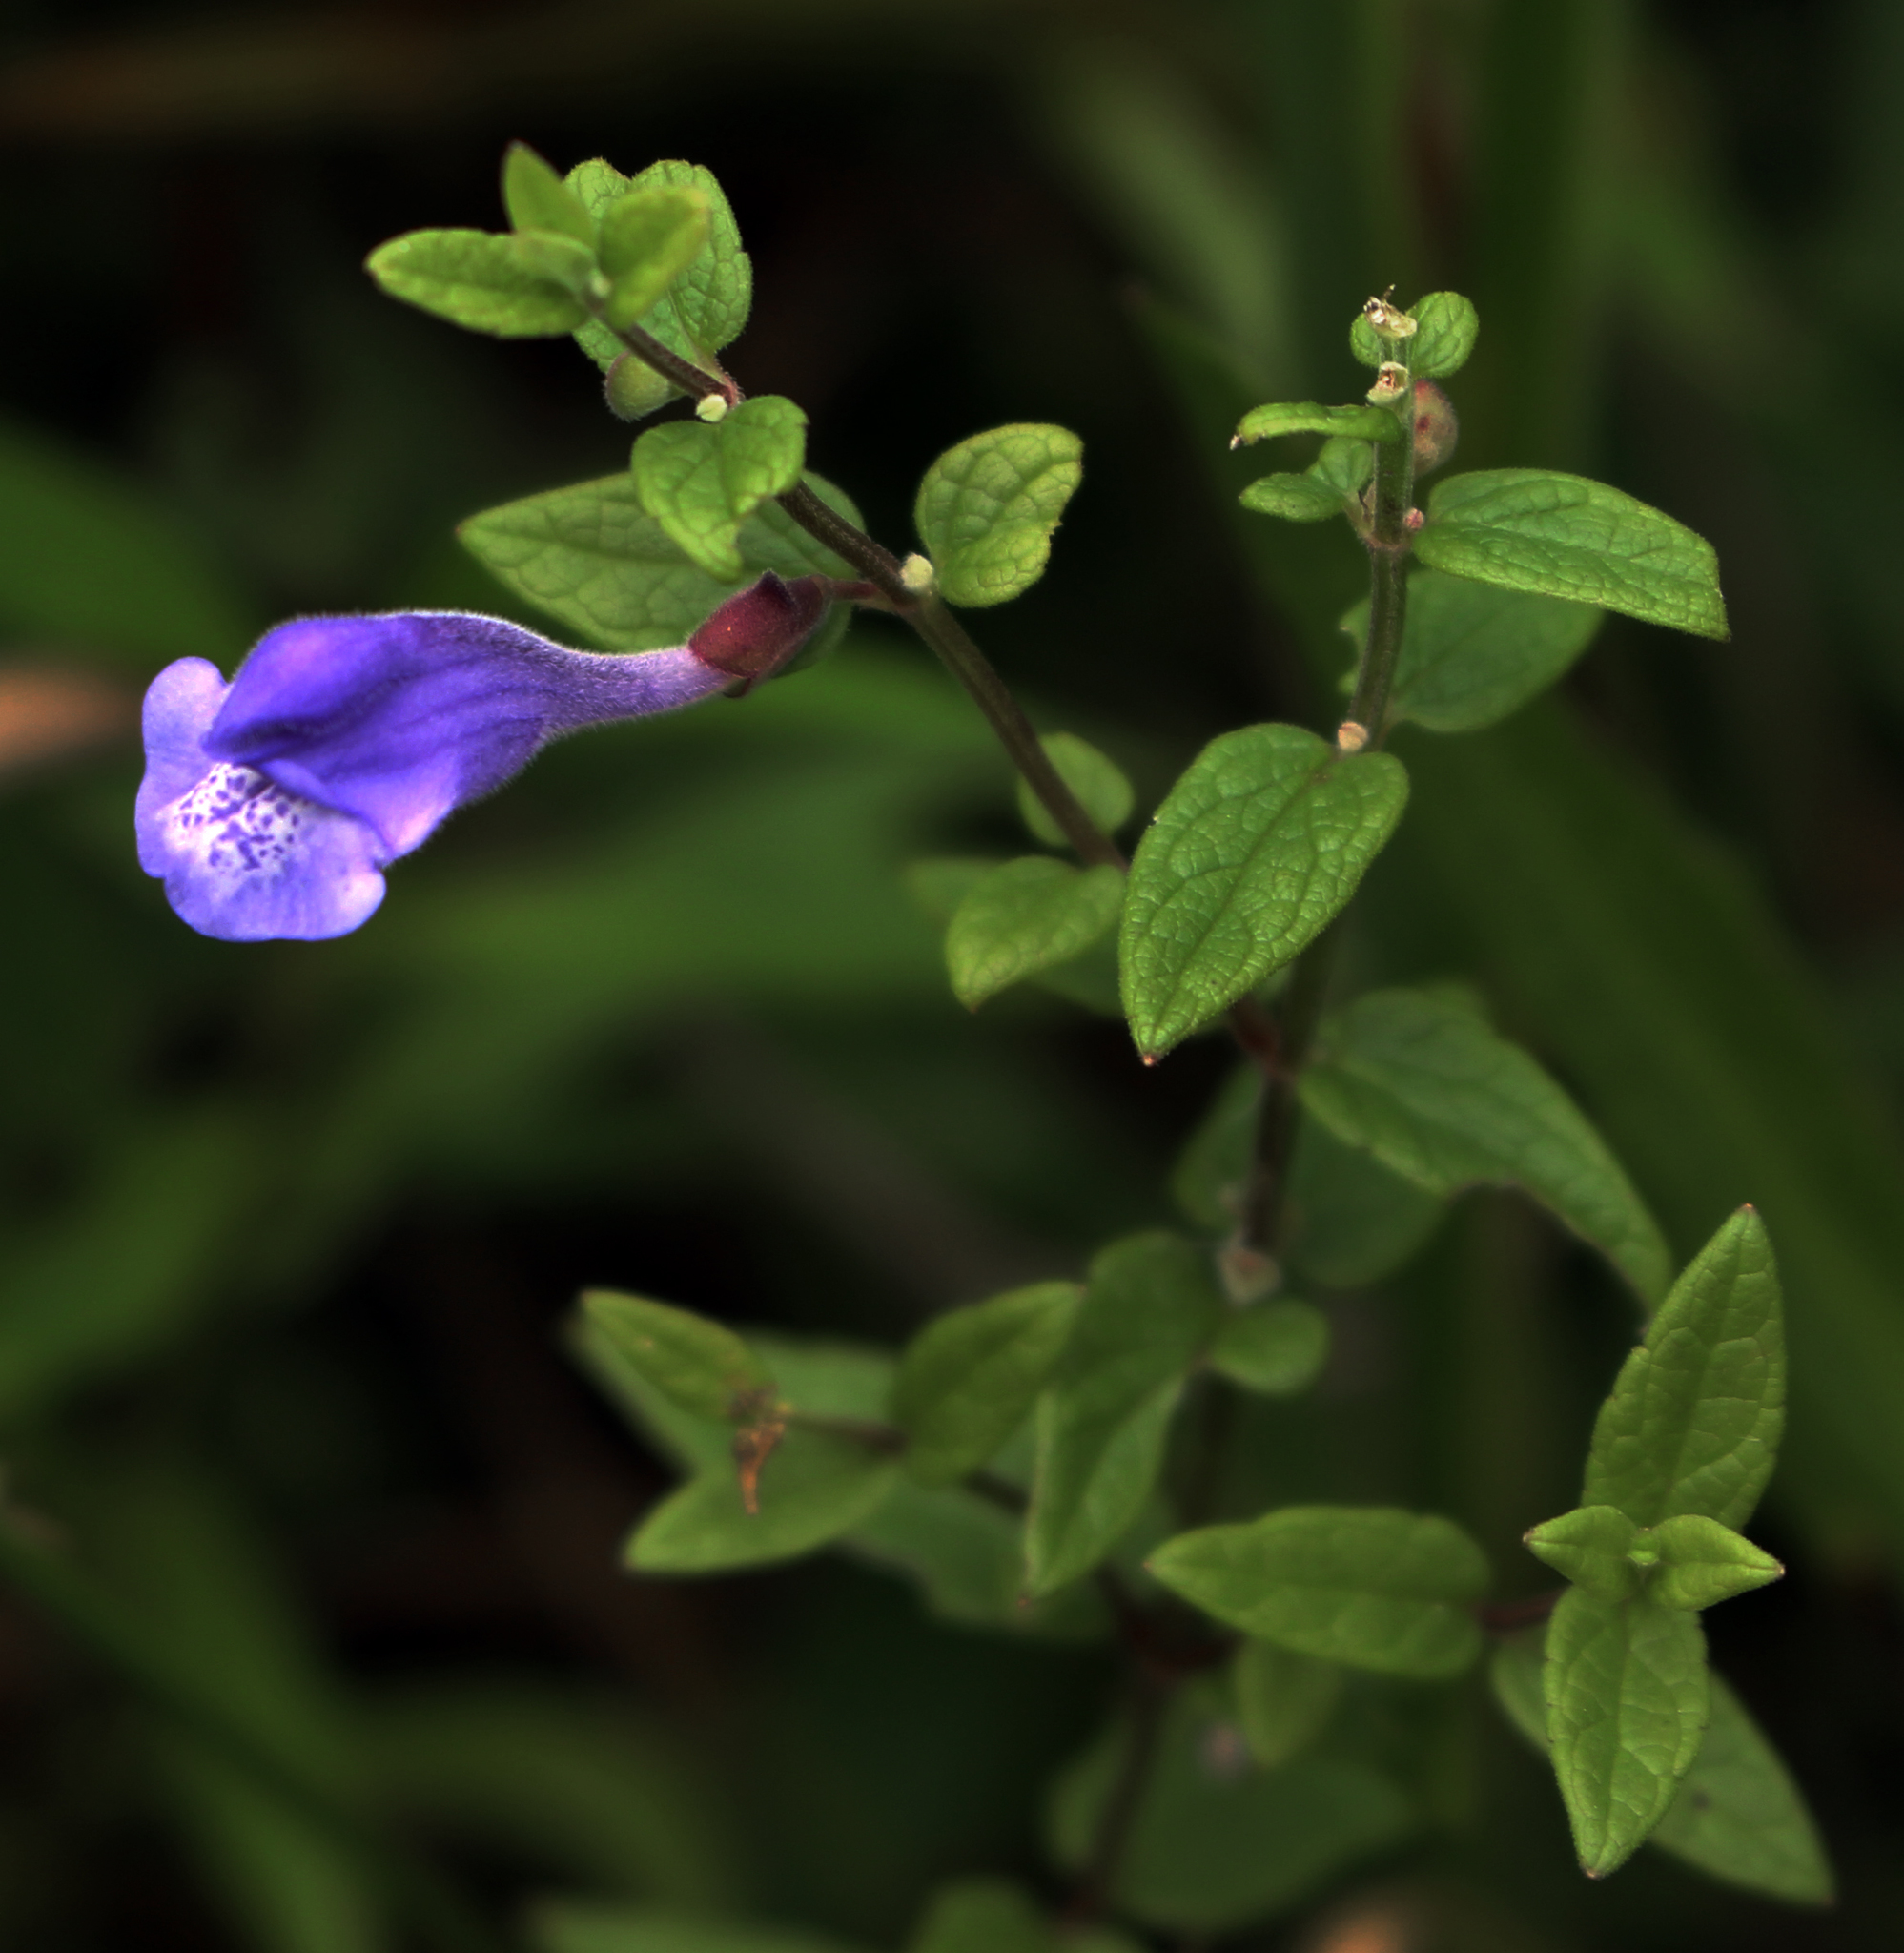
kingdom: Plantae
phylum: Tracheophyta
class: Magnoliopsida
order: Lamiales
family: Lamiaceae
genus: Scutellaria
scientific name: Scutellaria galericulata
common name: Skullcap
